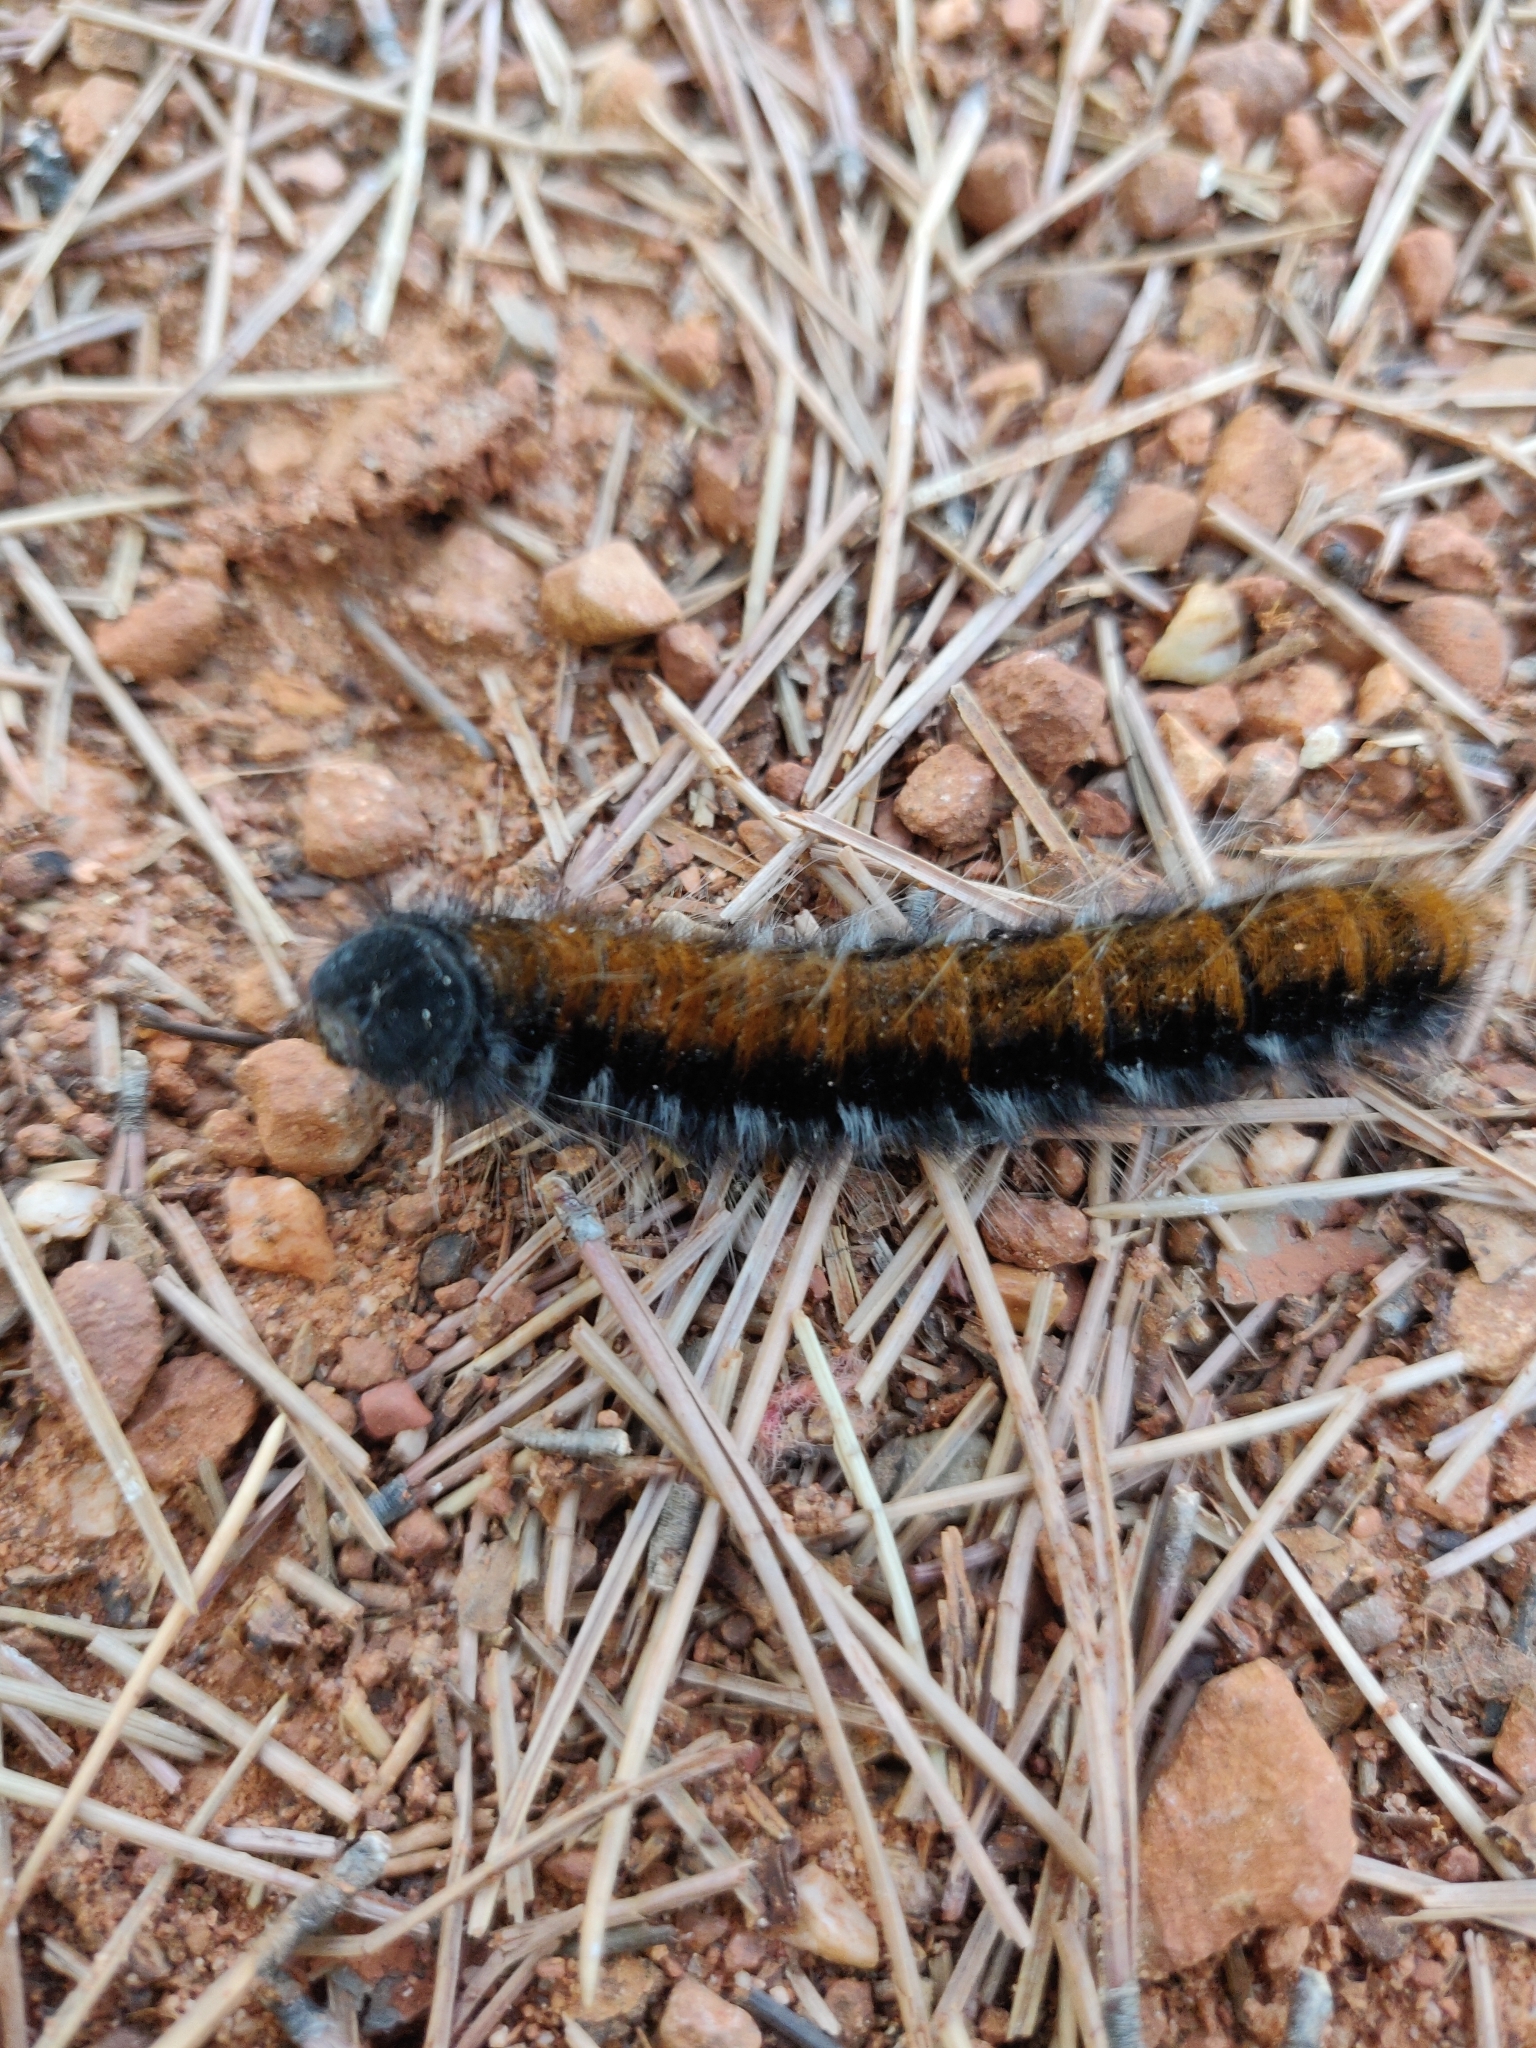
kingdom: Animalia
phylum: Arthropoda
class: Insecta
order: Lepidoptera
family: Lasiocampidae
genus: Macrothylacia
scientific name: Macrothylacia rubi
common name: Fox moth
